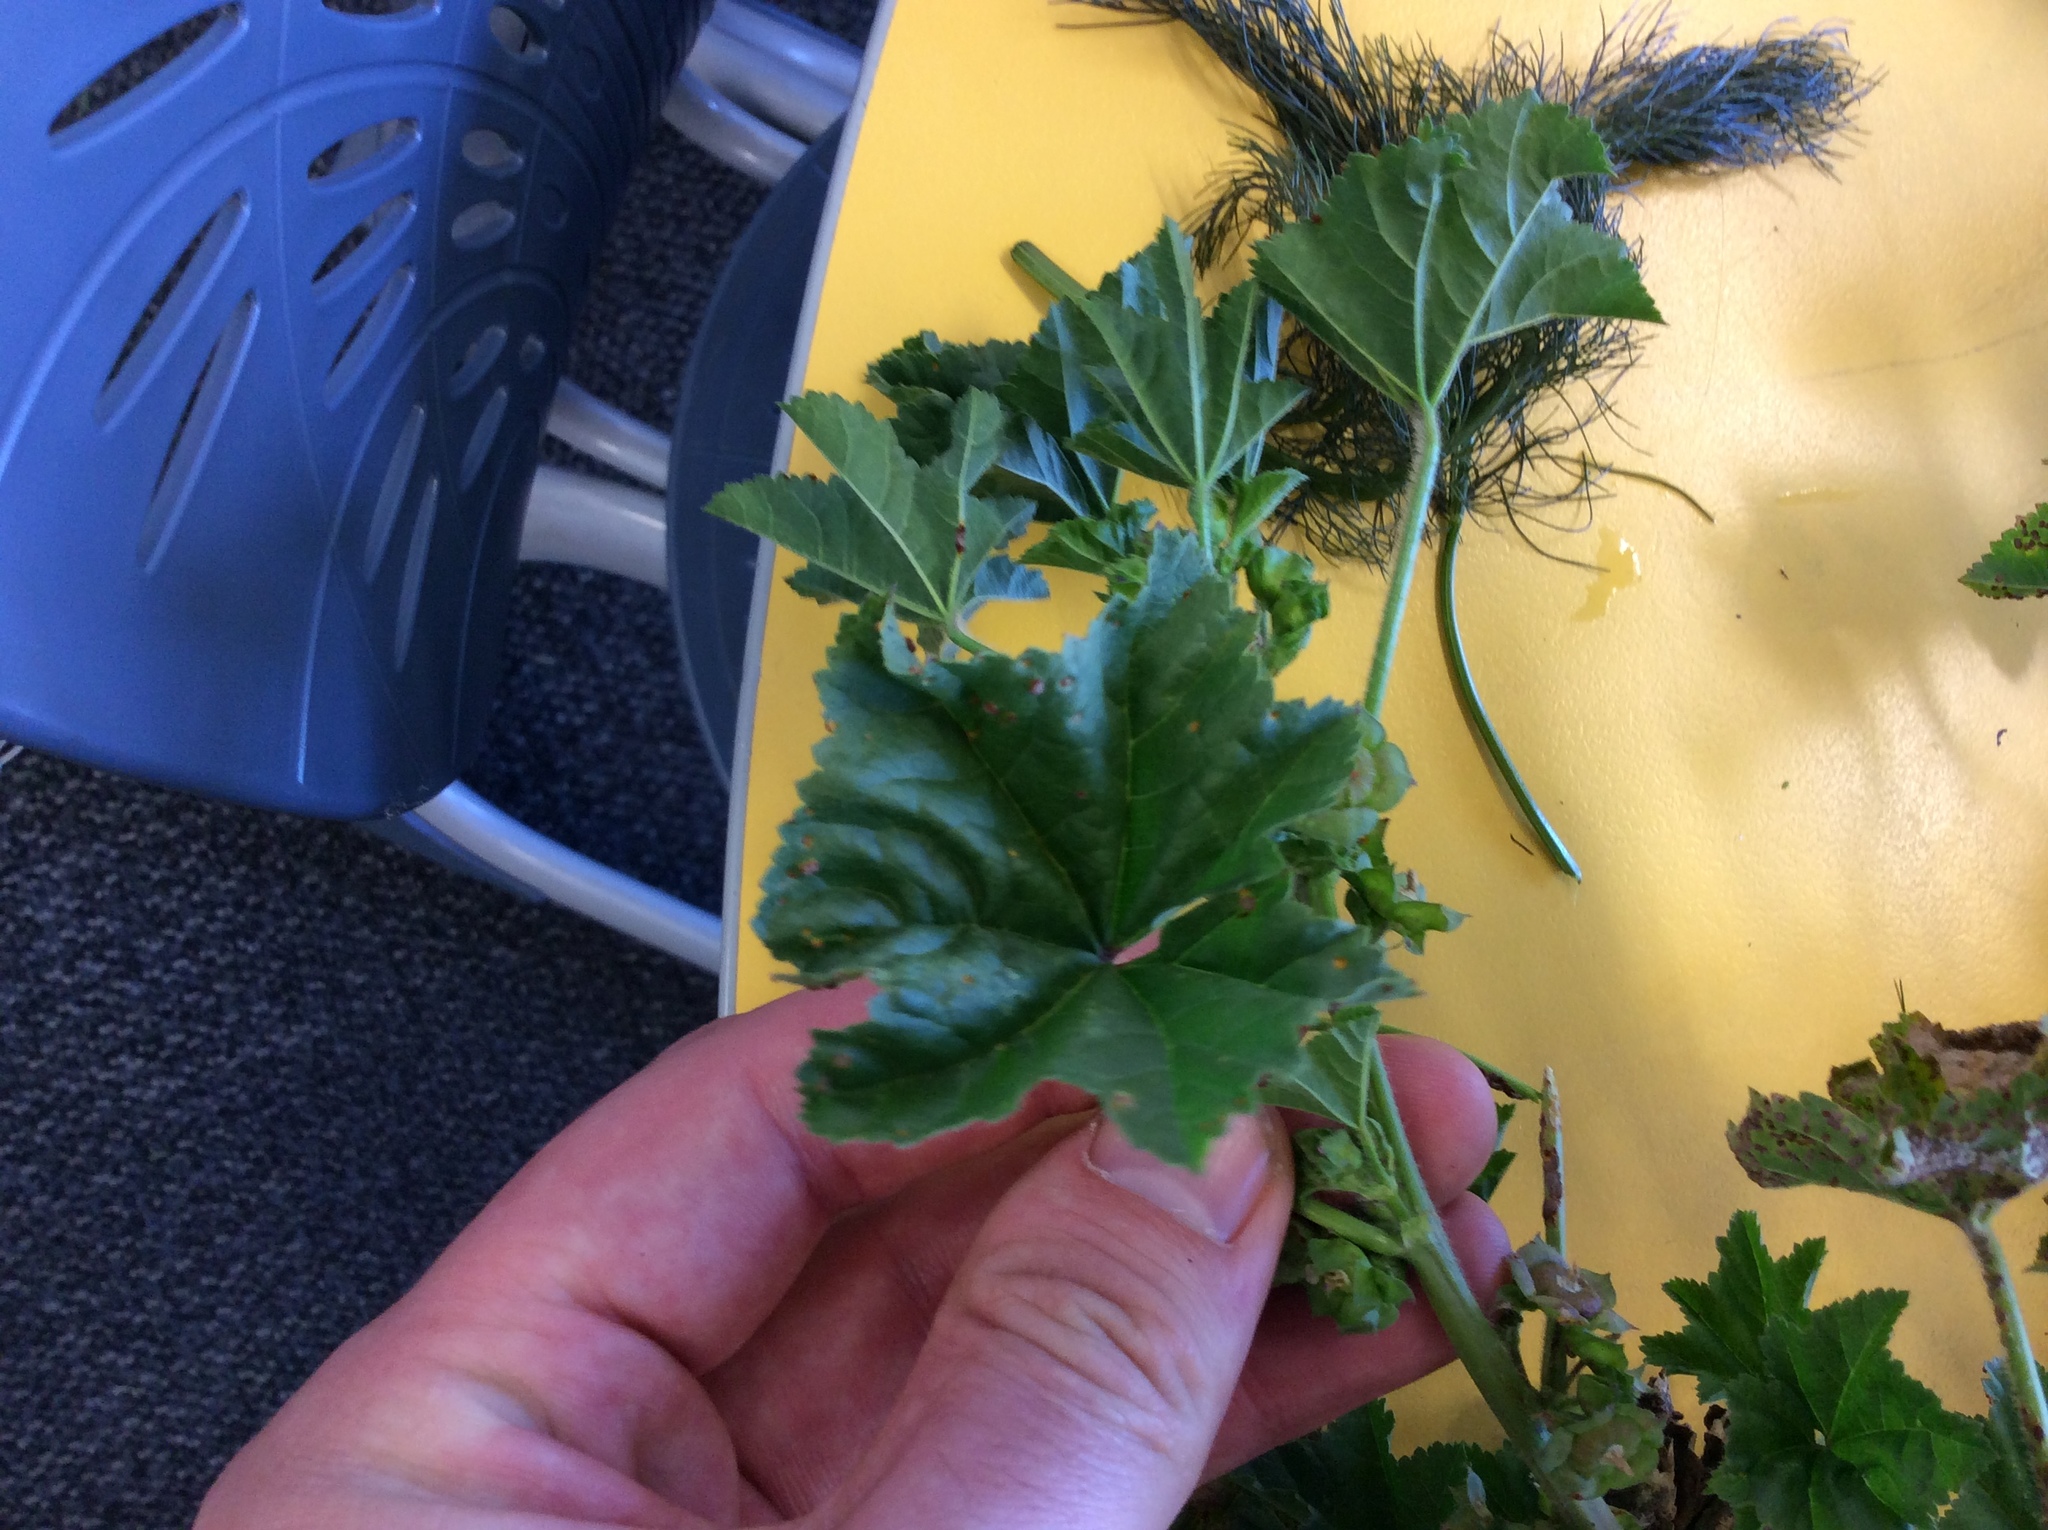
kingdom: Plantae
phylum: Tracheophyta
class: Magnoliopsida
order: Malvales
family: Malvaceae
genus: Malva
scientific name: Malva parviflora
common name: Least mallow
